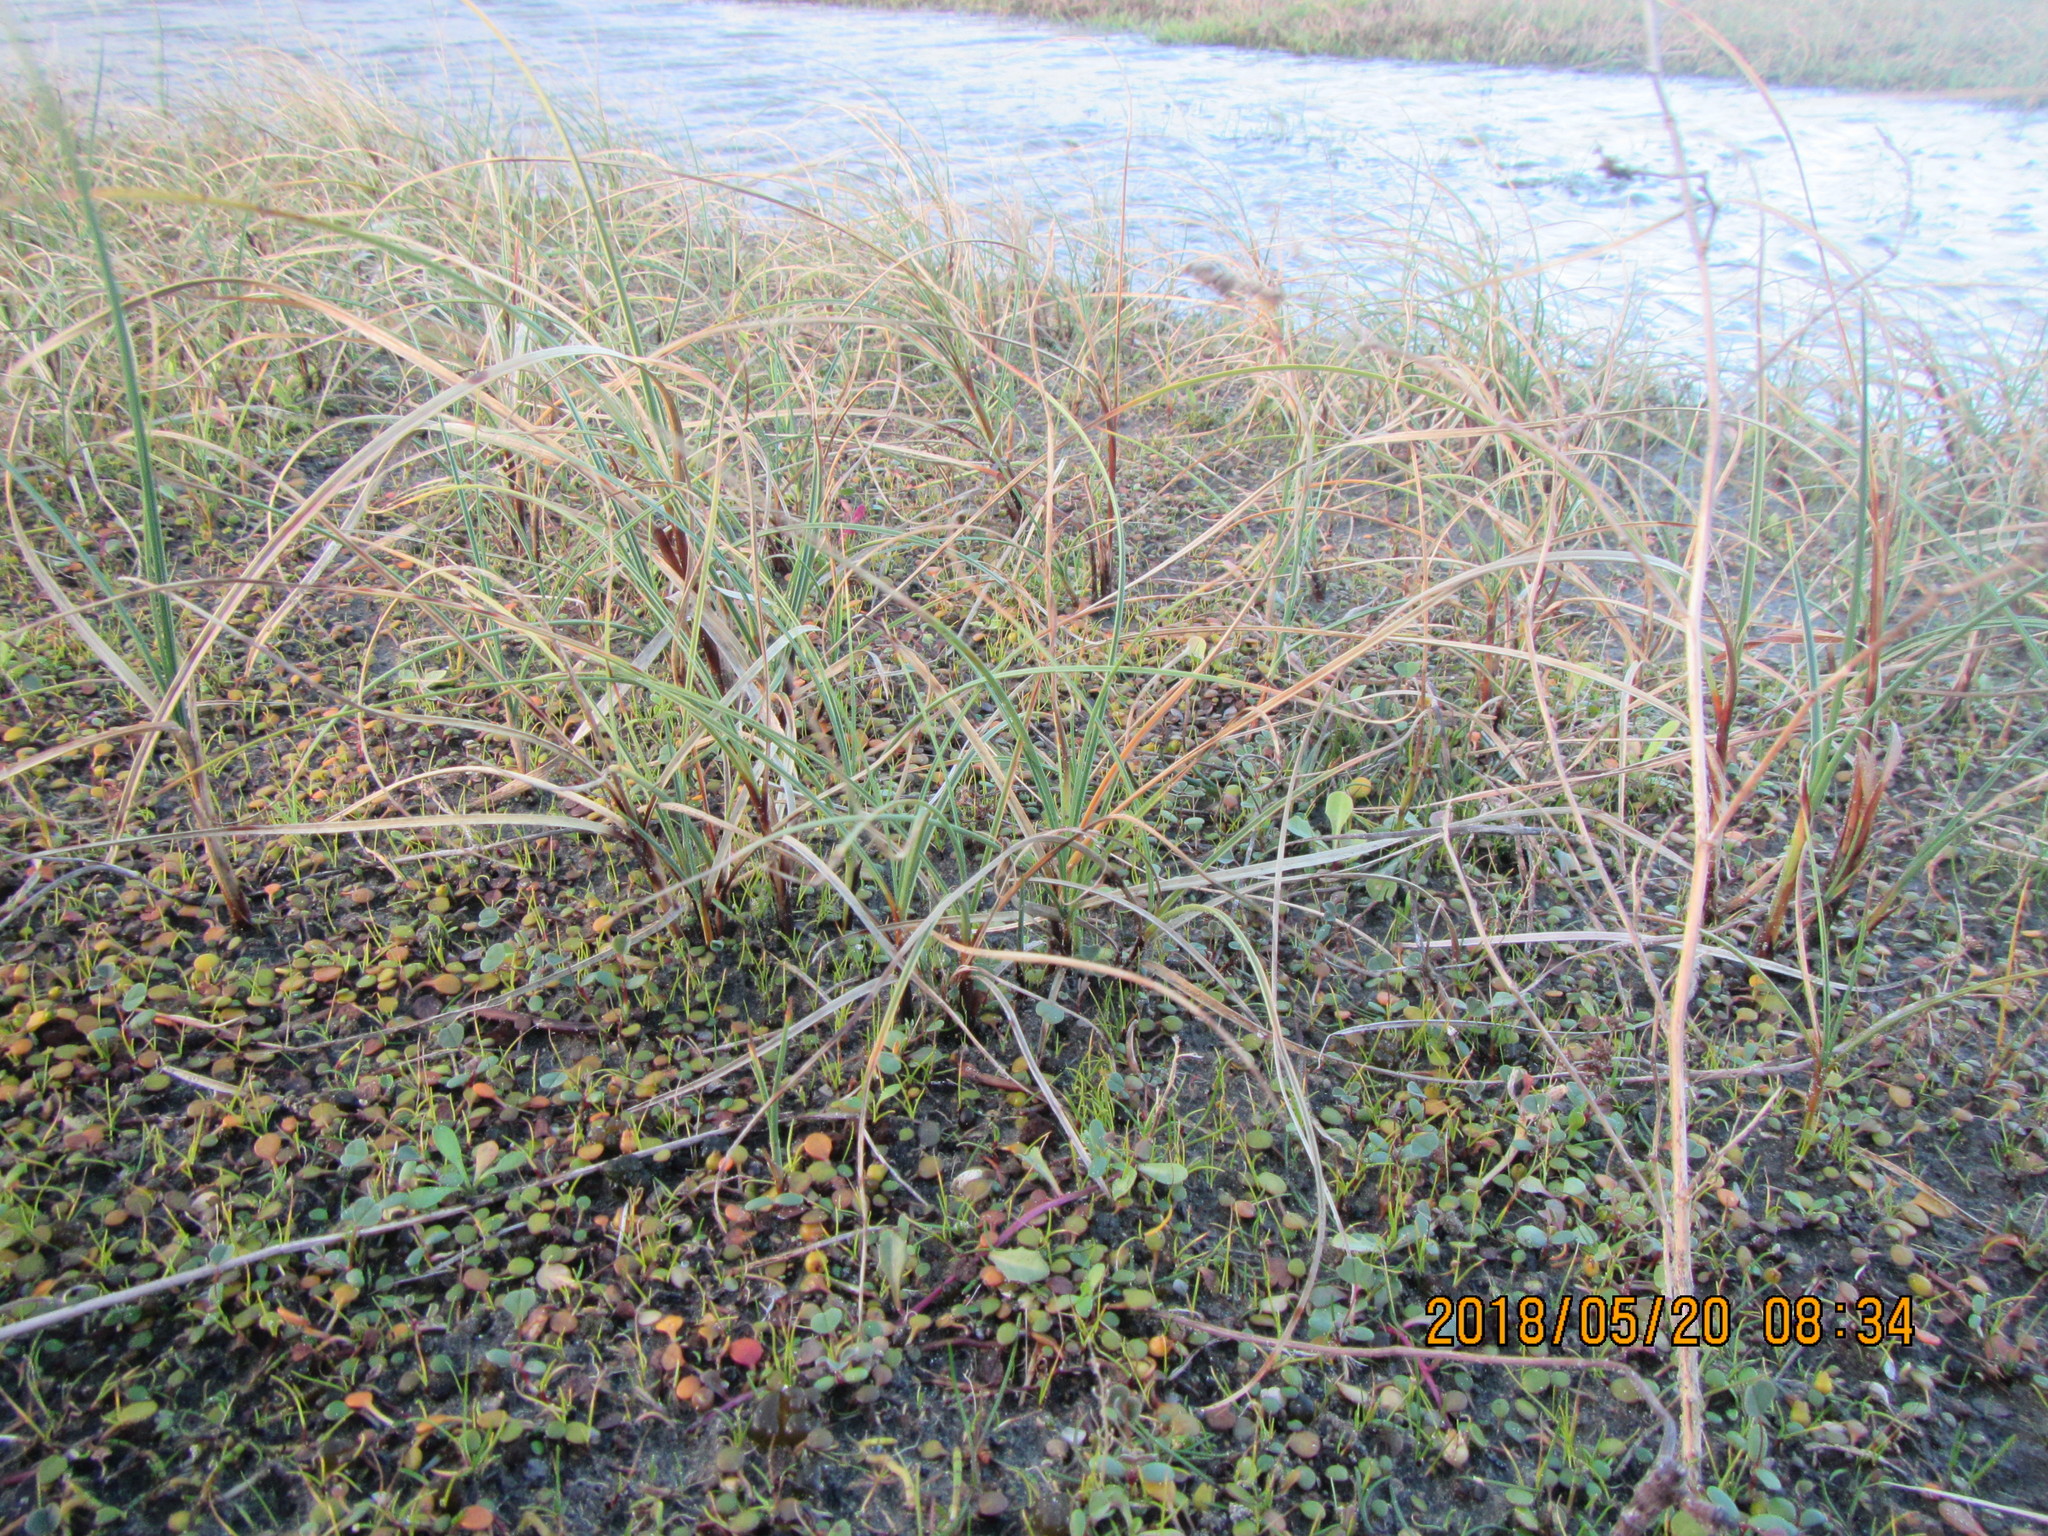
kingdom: Plantae
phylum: Tracheophyta
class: Liliopsida
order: Poales
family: Cyperaceae
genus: Carex
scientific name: Carex pumila
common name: Dwarf sedge
